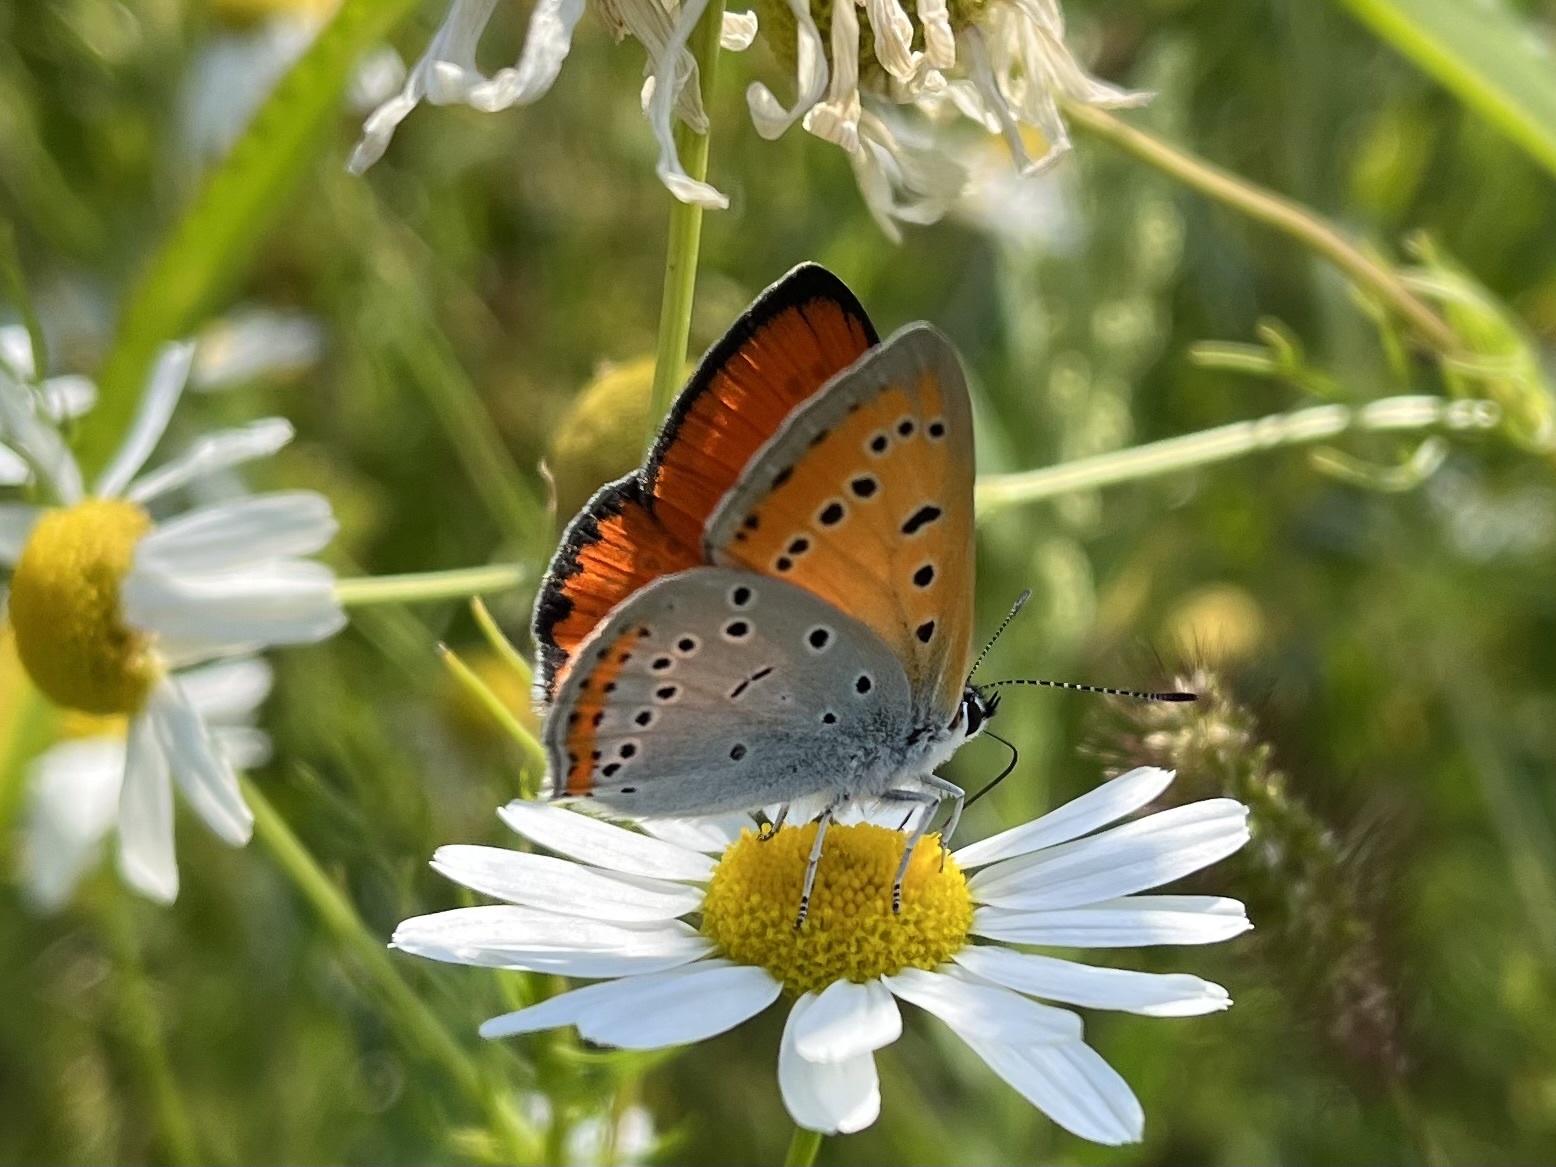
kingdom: Animalia
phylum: Arthropoda
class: Insecta
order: Lepidoptera
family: Lycaenidae
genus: Lycaena
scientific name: Lycaena dispar
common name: Large copper
